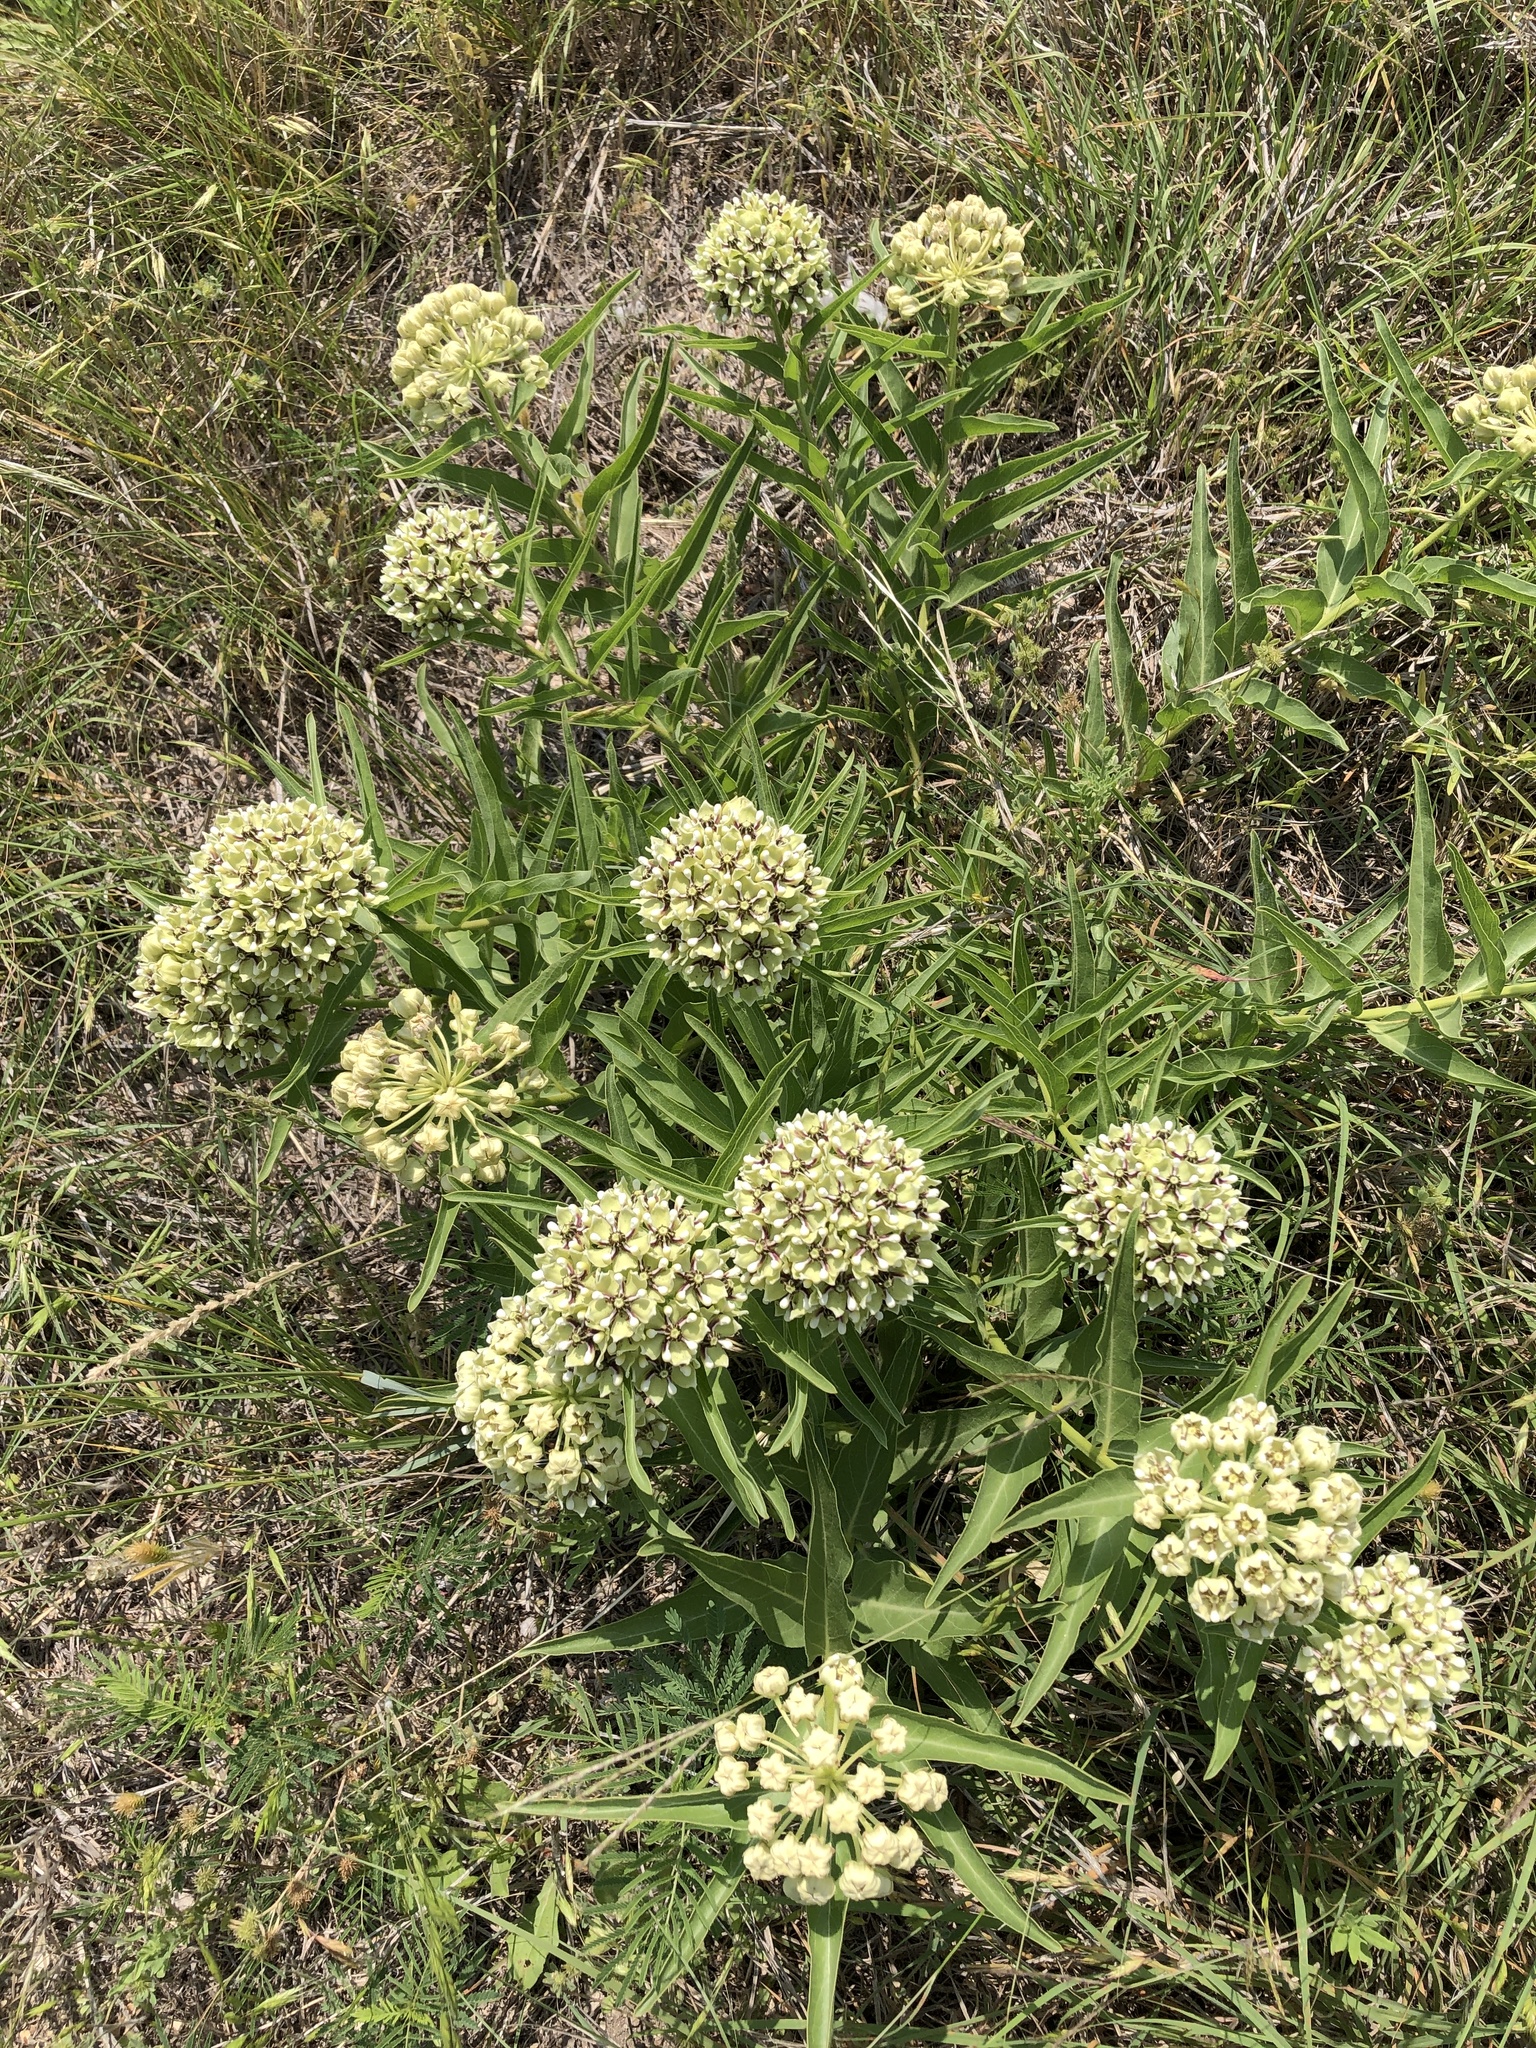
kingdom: Plantae
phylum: Tracheophyta
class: Magnoliopsida
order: Gentianales
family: Apocynaceae
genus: Asclepias
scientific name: Asclepias asperula
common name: Antelope horns
